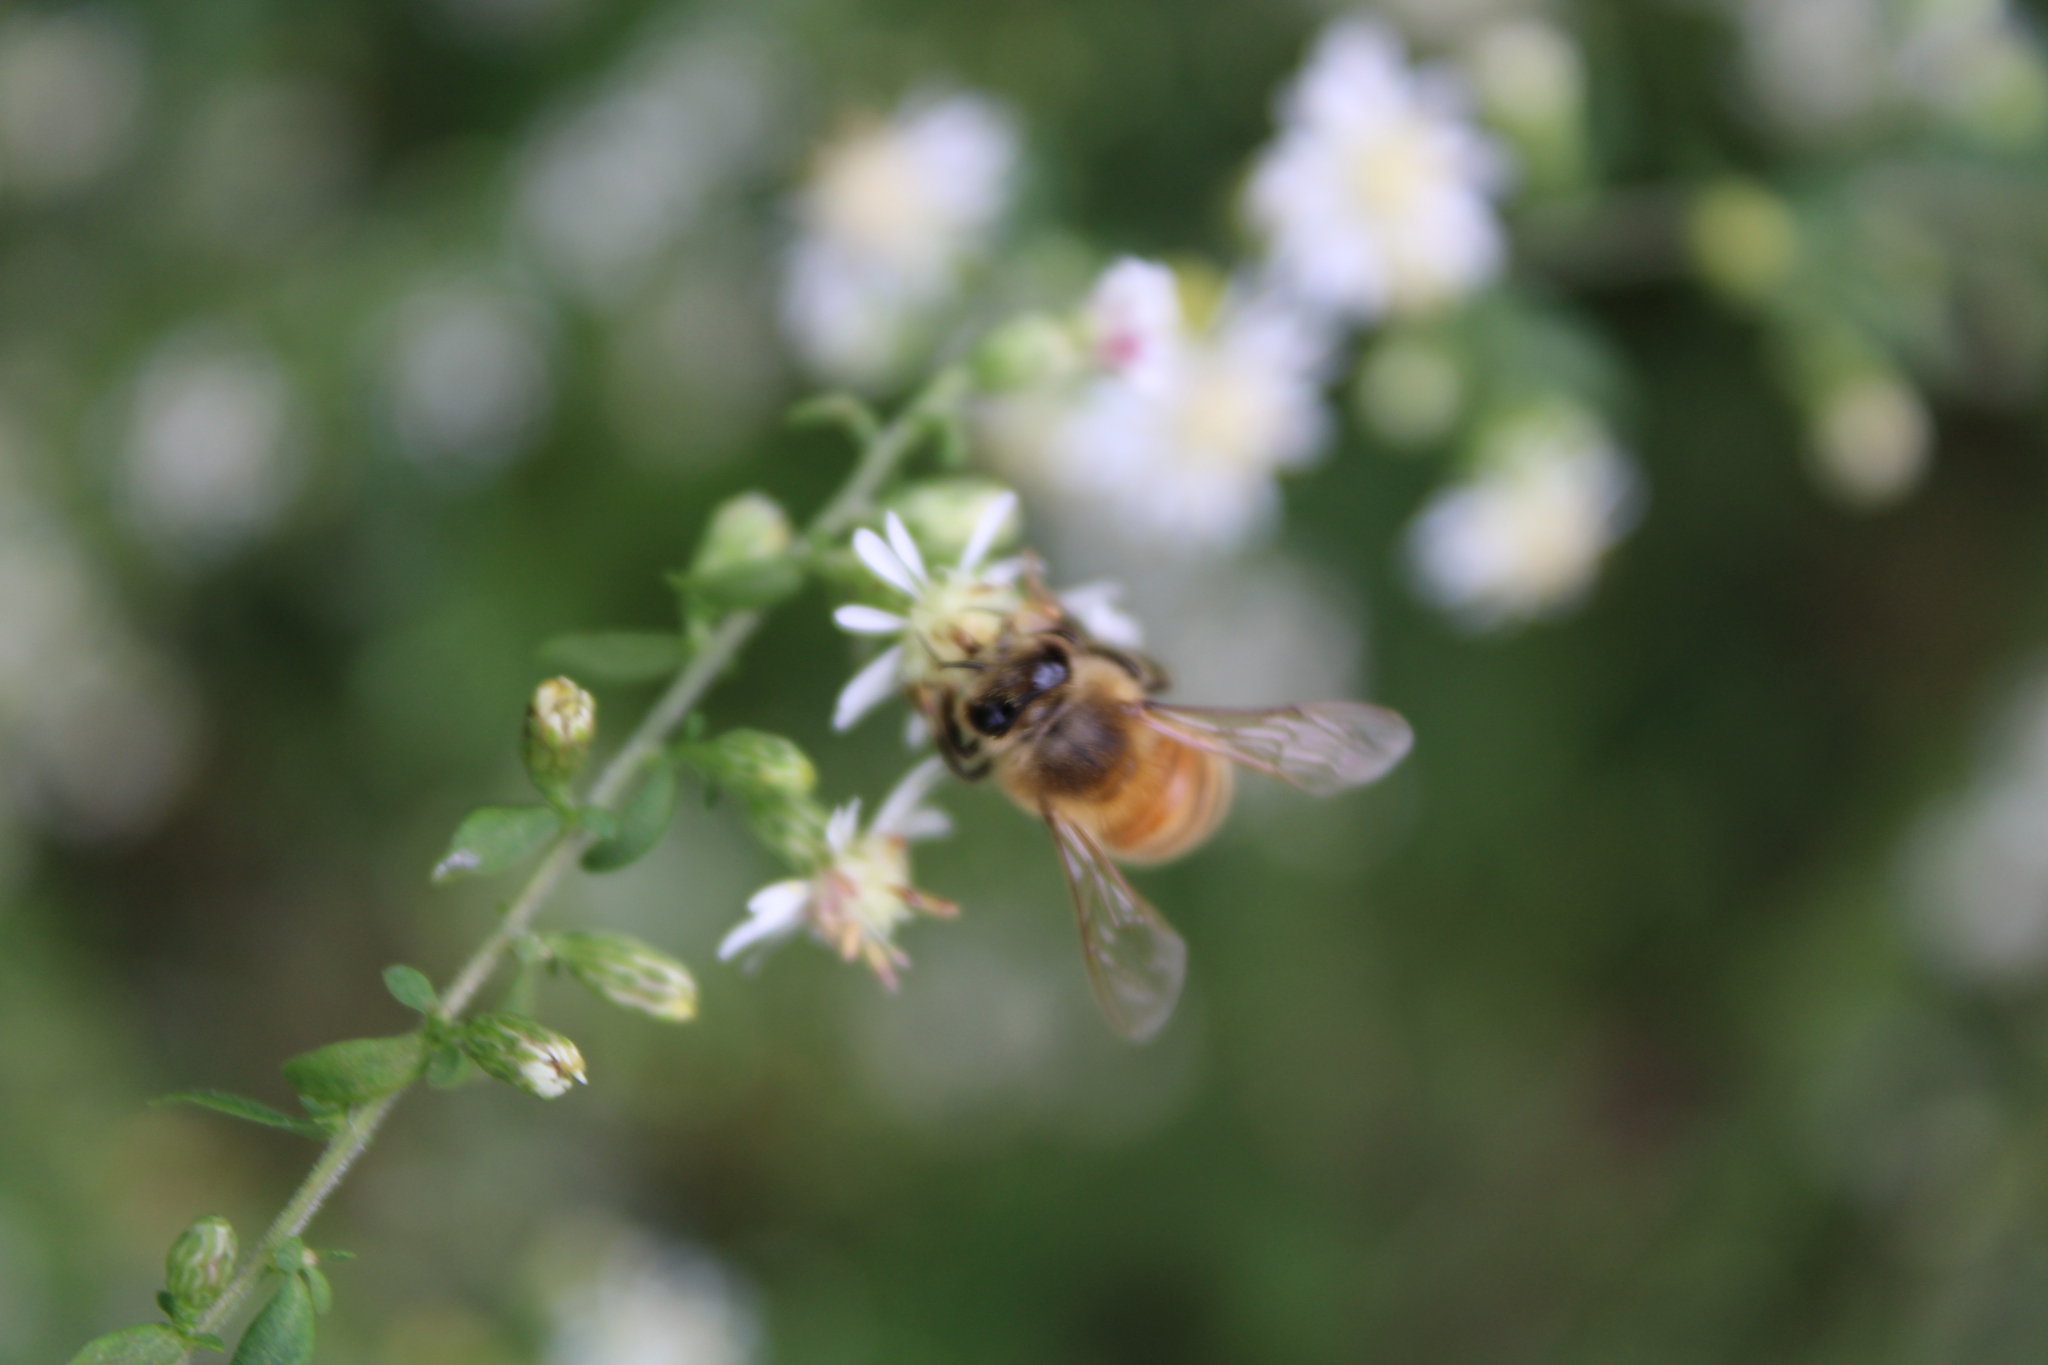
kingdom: Animalia
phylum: Arthropoda
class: Insecta
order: Hymenoptera
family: Apidae
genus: Apis
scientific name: Apis mellifera
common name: Honey bee
